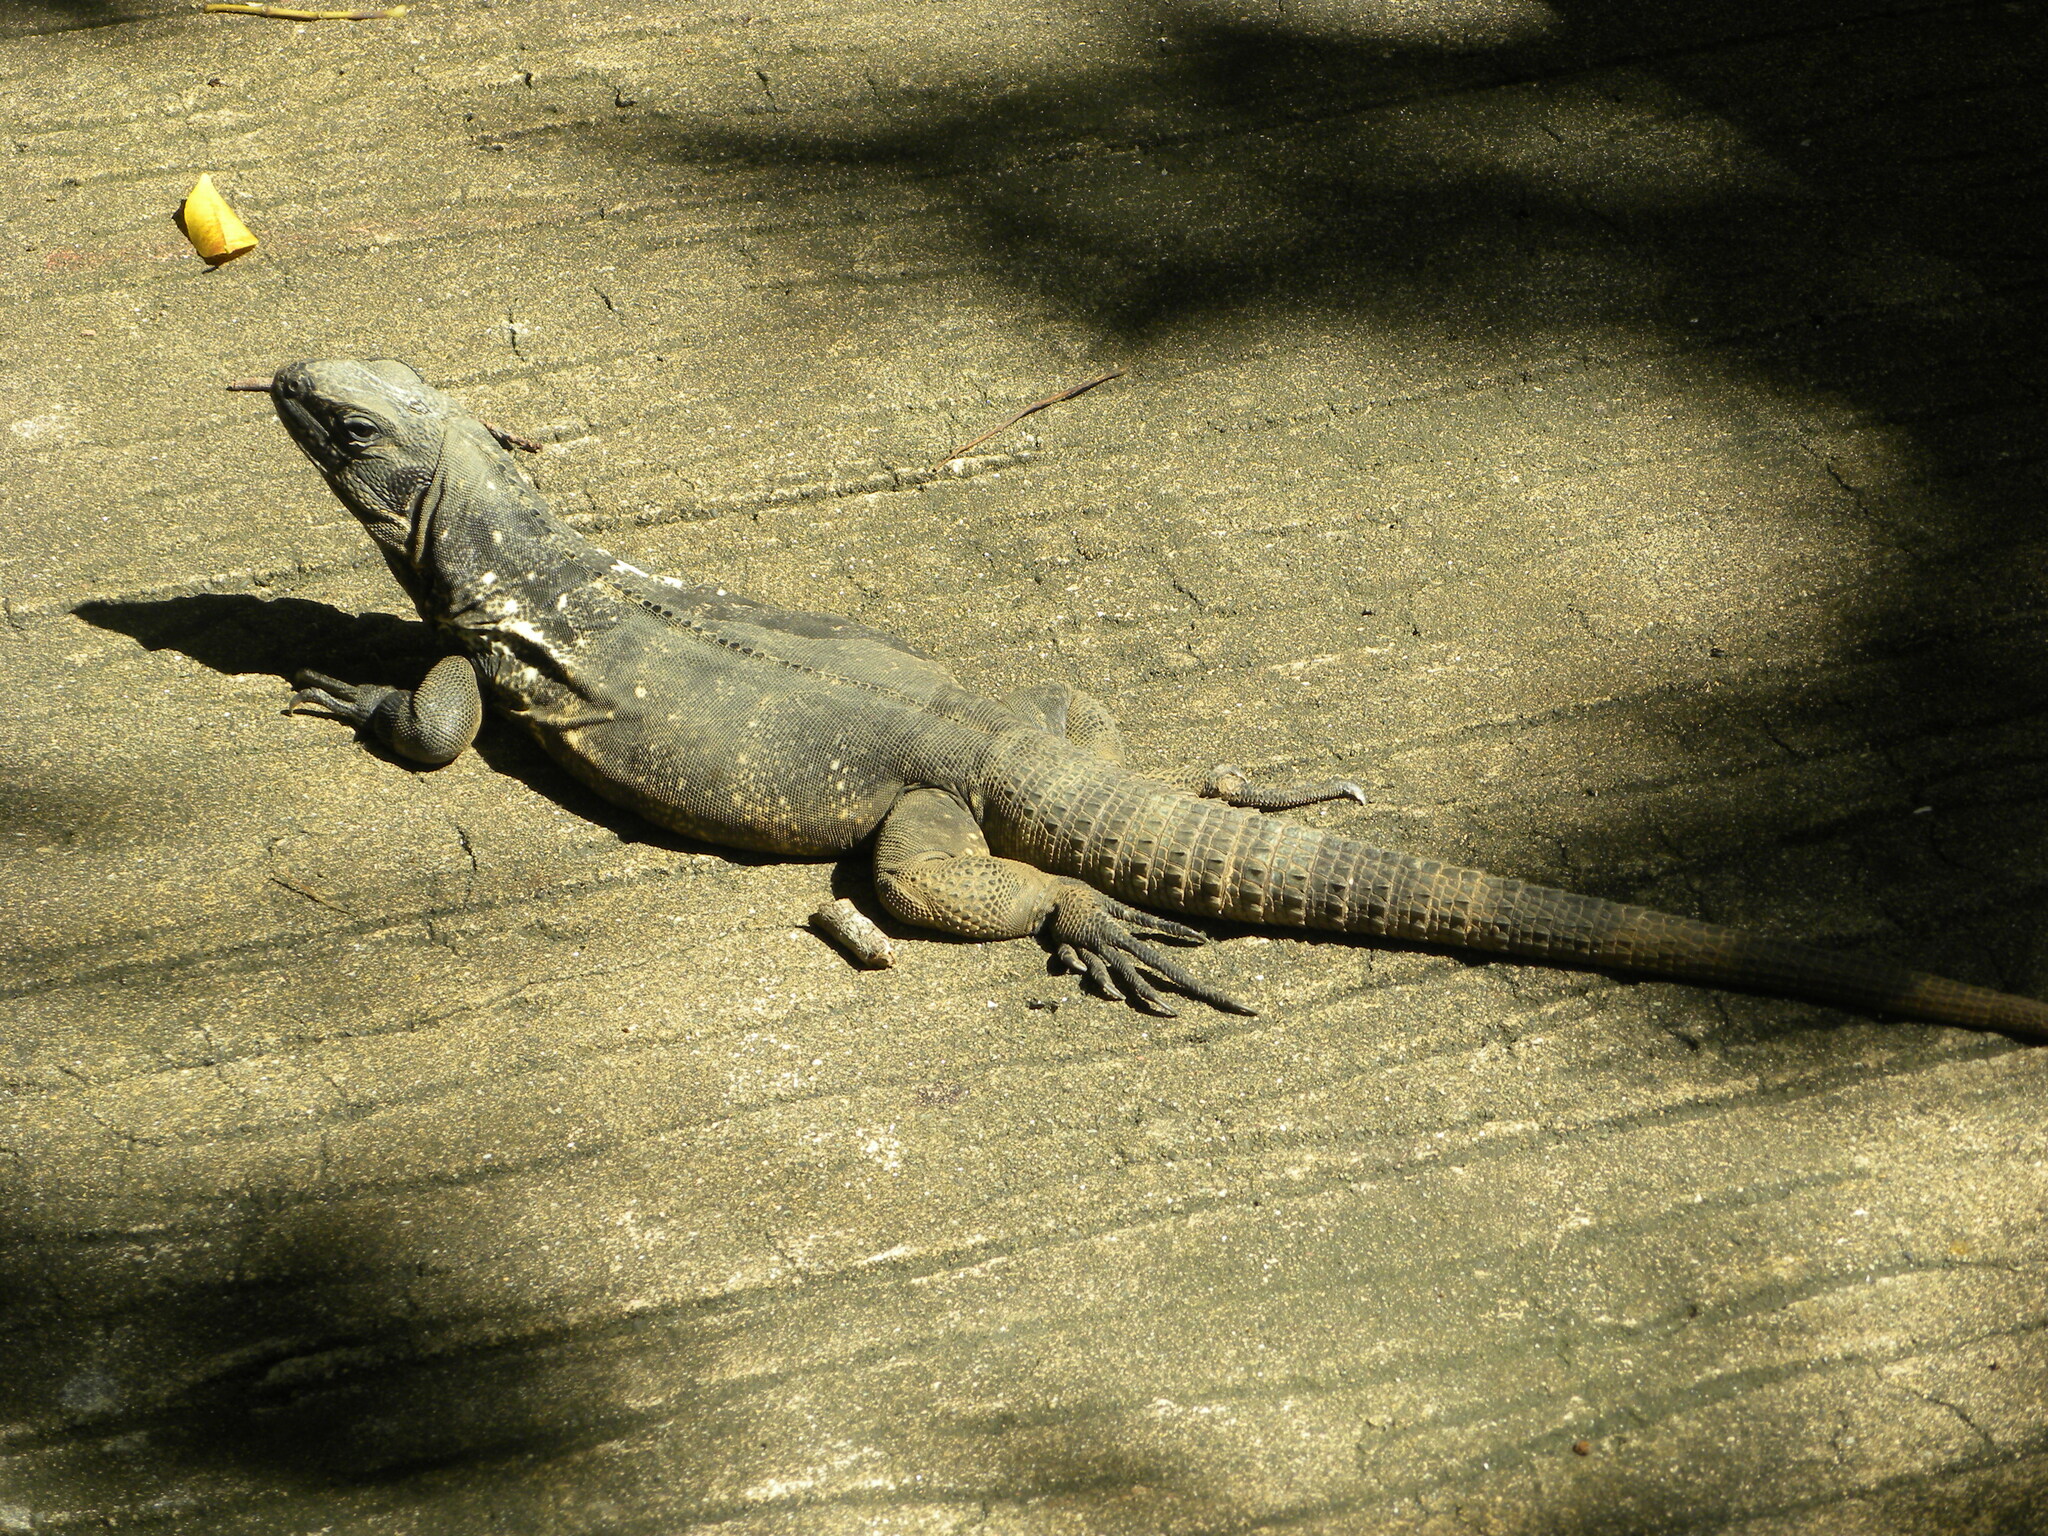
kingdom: Animalia
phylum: Chordata
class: Squamata
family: Iguanidae
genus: Ctenosaura
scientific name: Ctenosaura oedirhina
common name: Roatan spiny-tailed iguana
